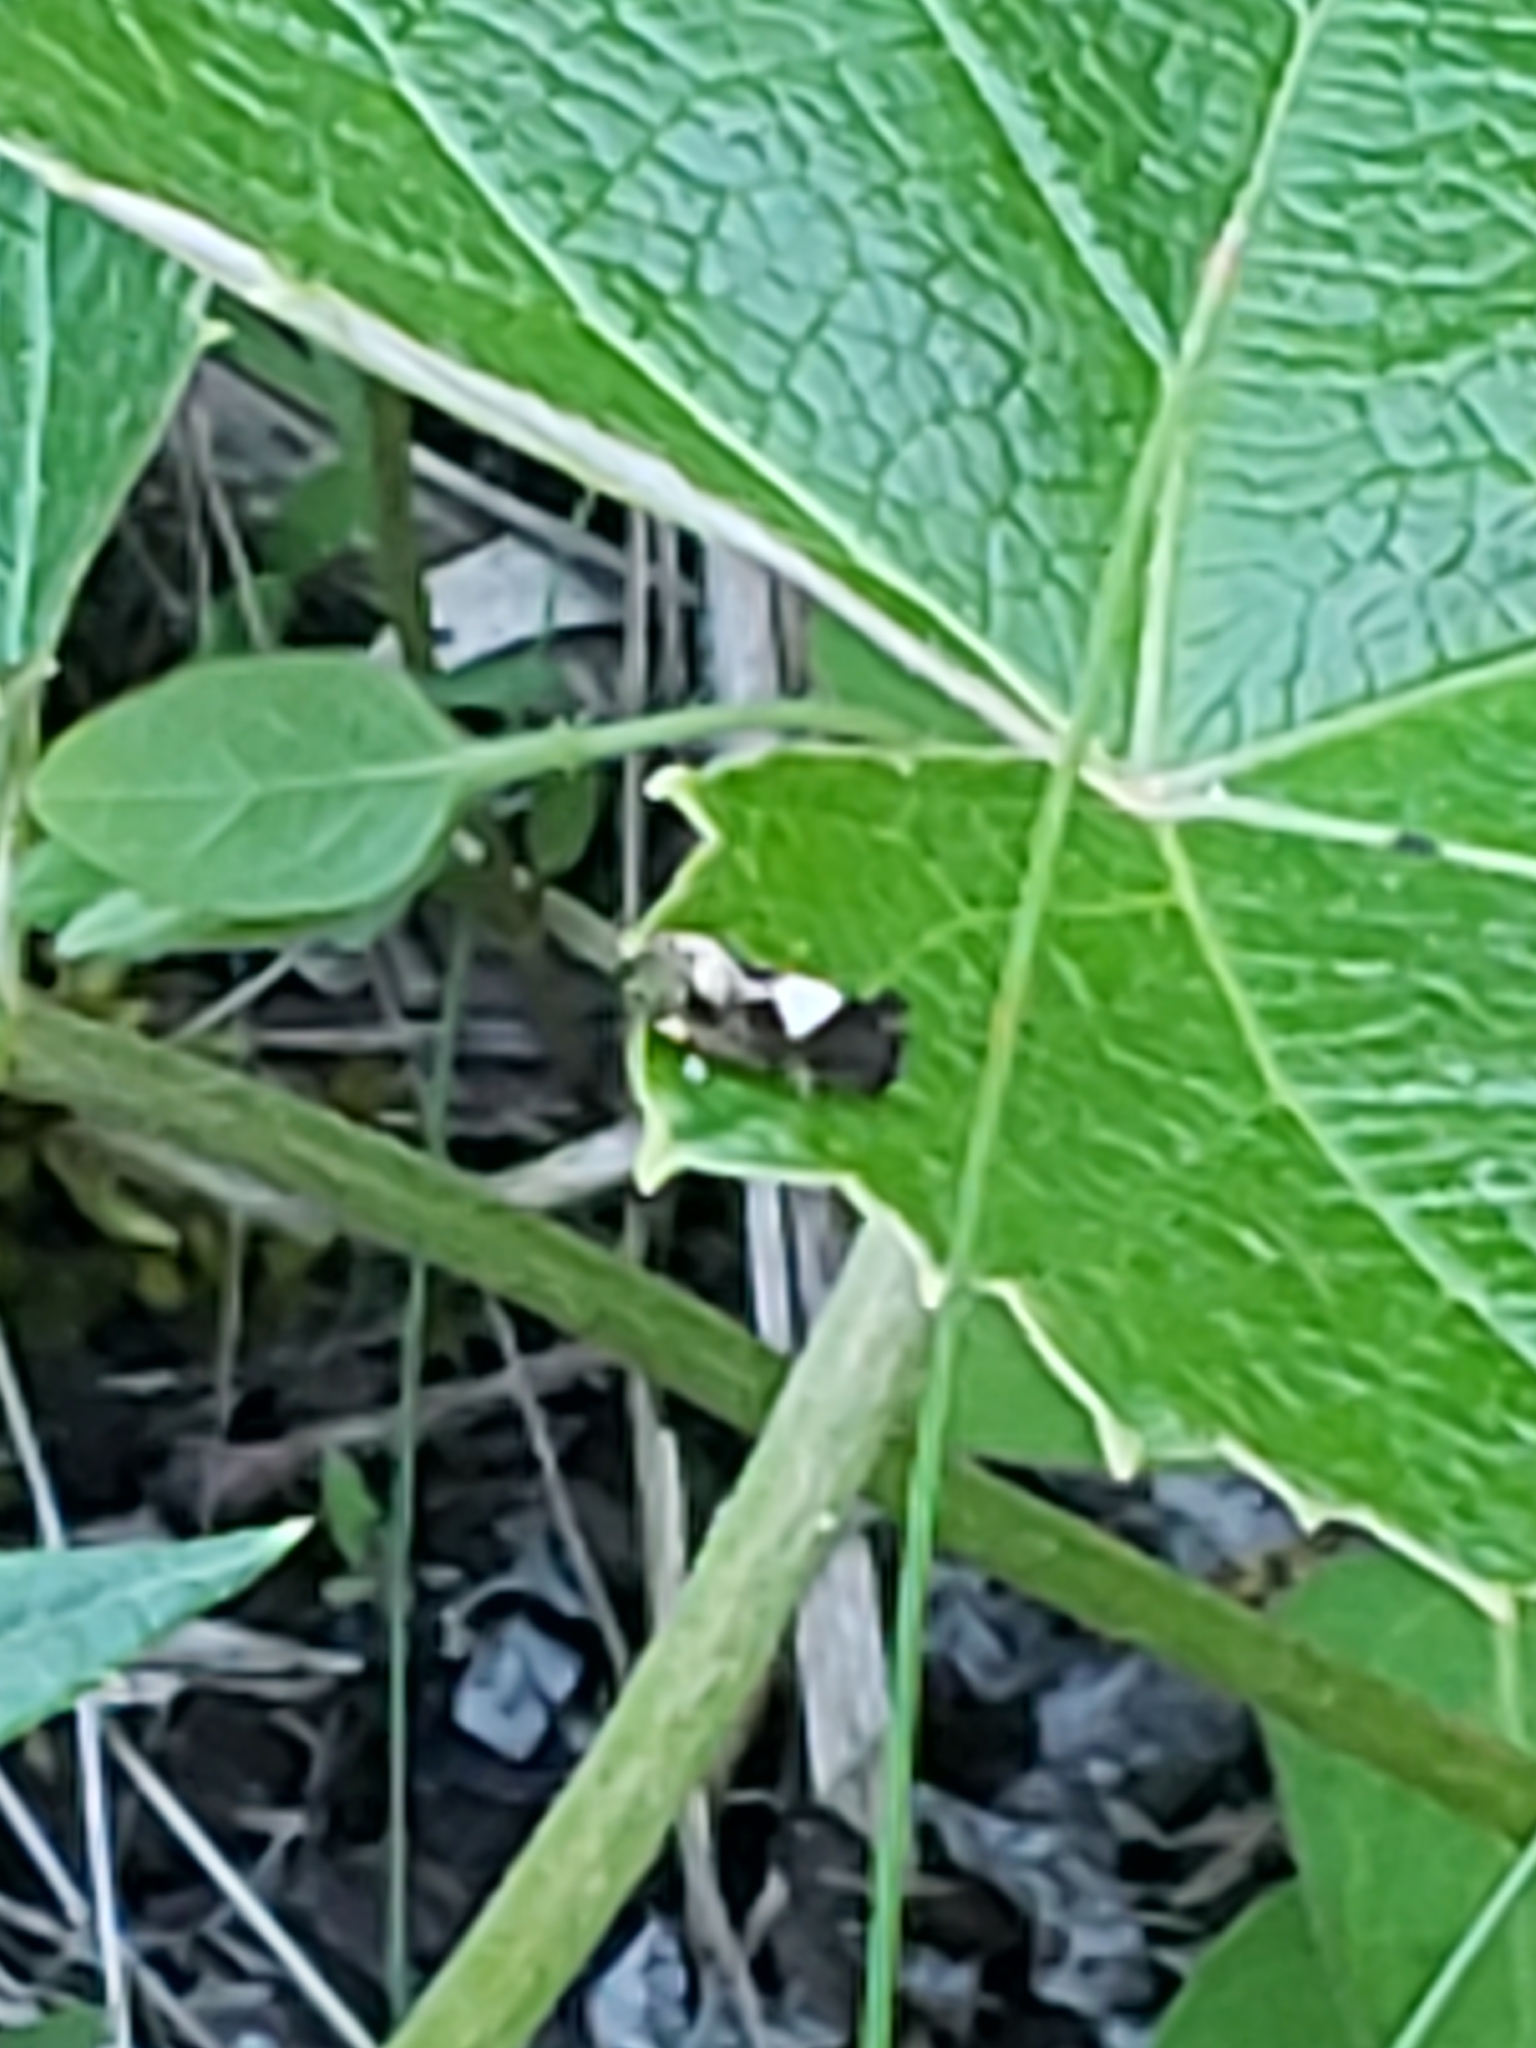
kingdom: Animalia
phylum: Arthropoda
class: Insecta
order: Lepidoptera
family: Tortricidae
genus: Epiblema
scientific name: Epiblema otiosana
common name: Bidens borer moth
